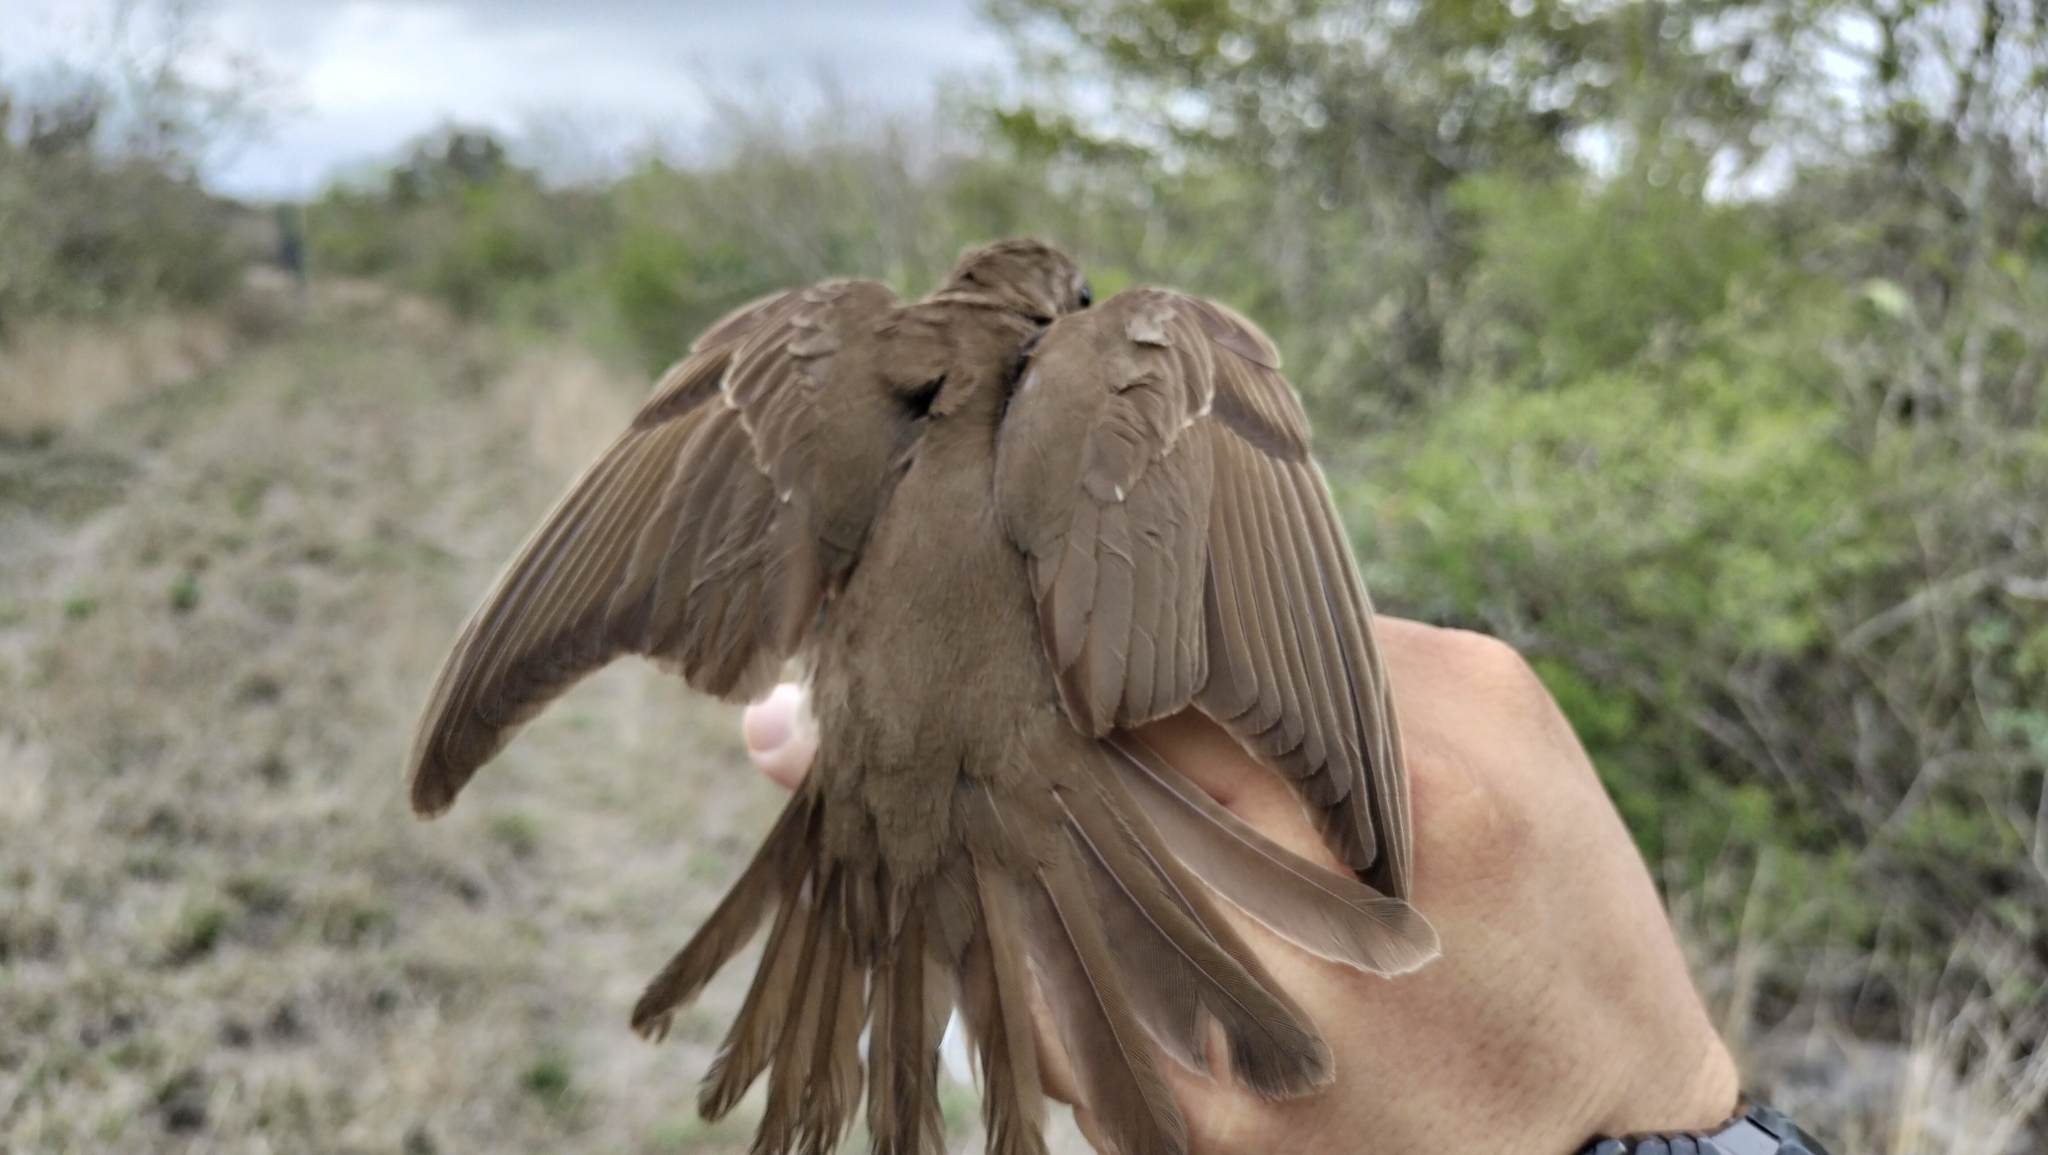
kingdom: Animalia
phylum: Chordata
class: Aves
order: Passeriformes
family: Turdidae
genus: Catharus
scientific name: Catharus guttatus
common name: Hermit thrush
